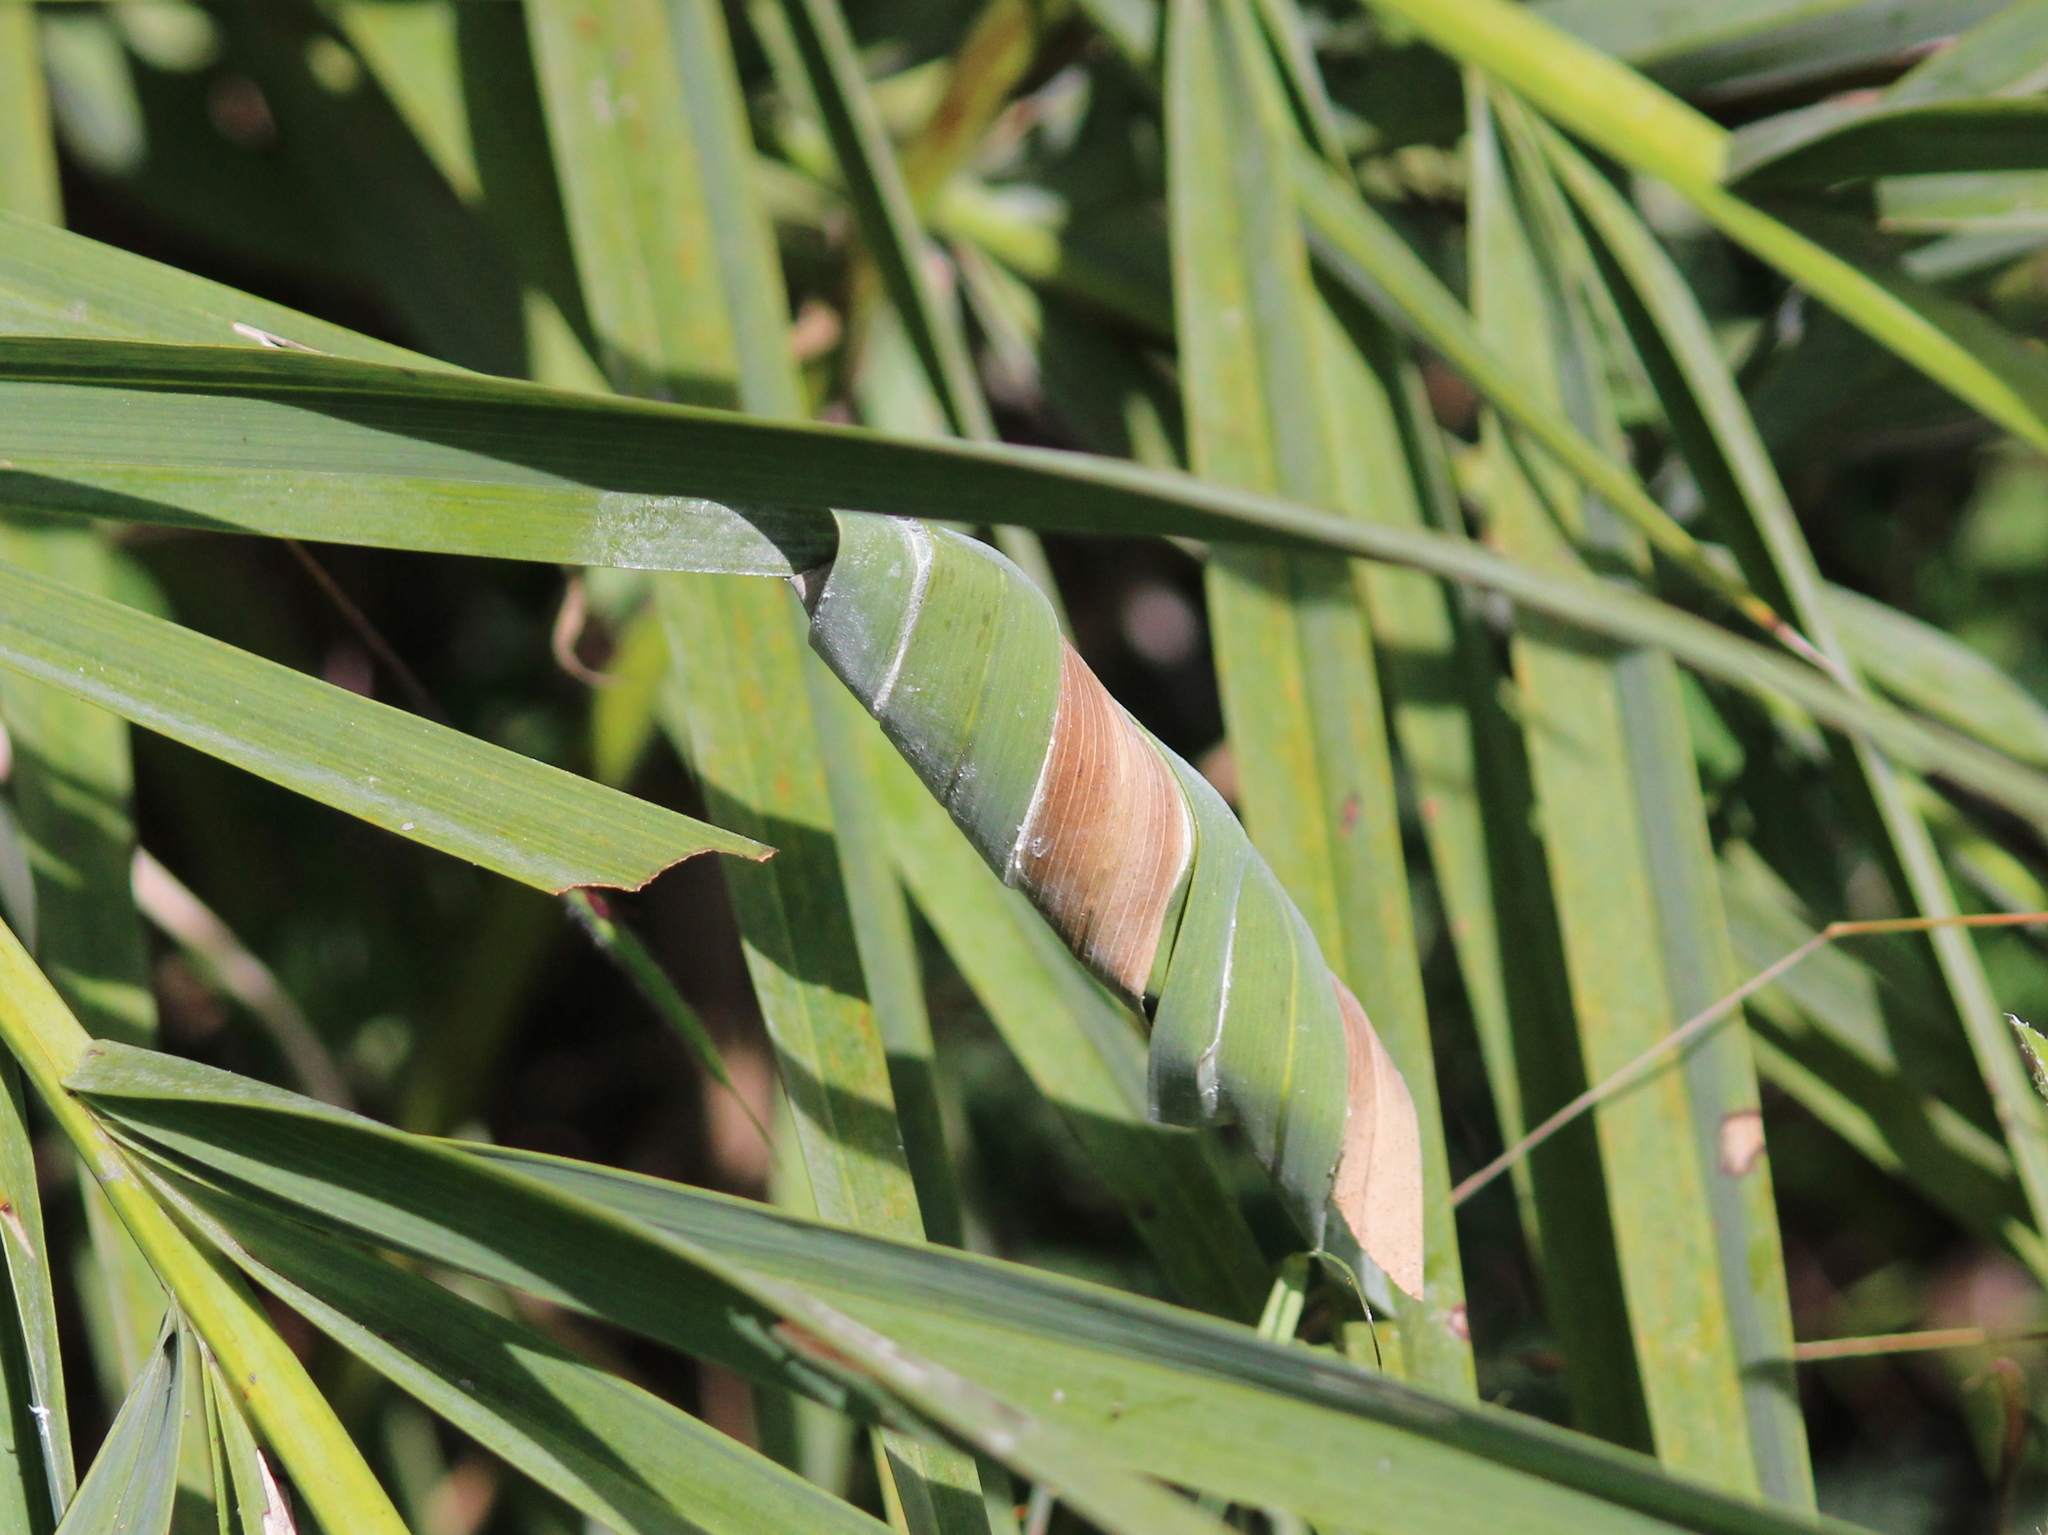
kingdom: Animalia
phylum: Arthropoda
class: Insecta
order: Lepidoptera
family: Hesperiidae
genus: Gangara
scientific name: Gangara thyrsis
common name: Giant redeye
